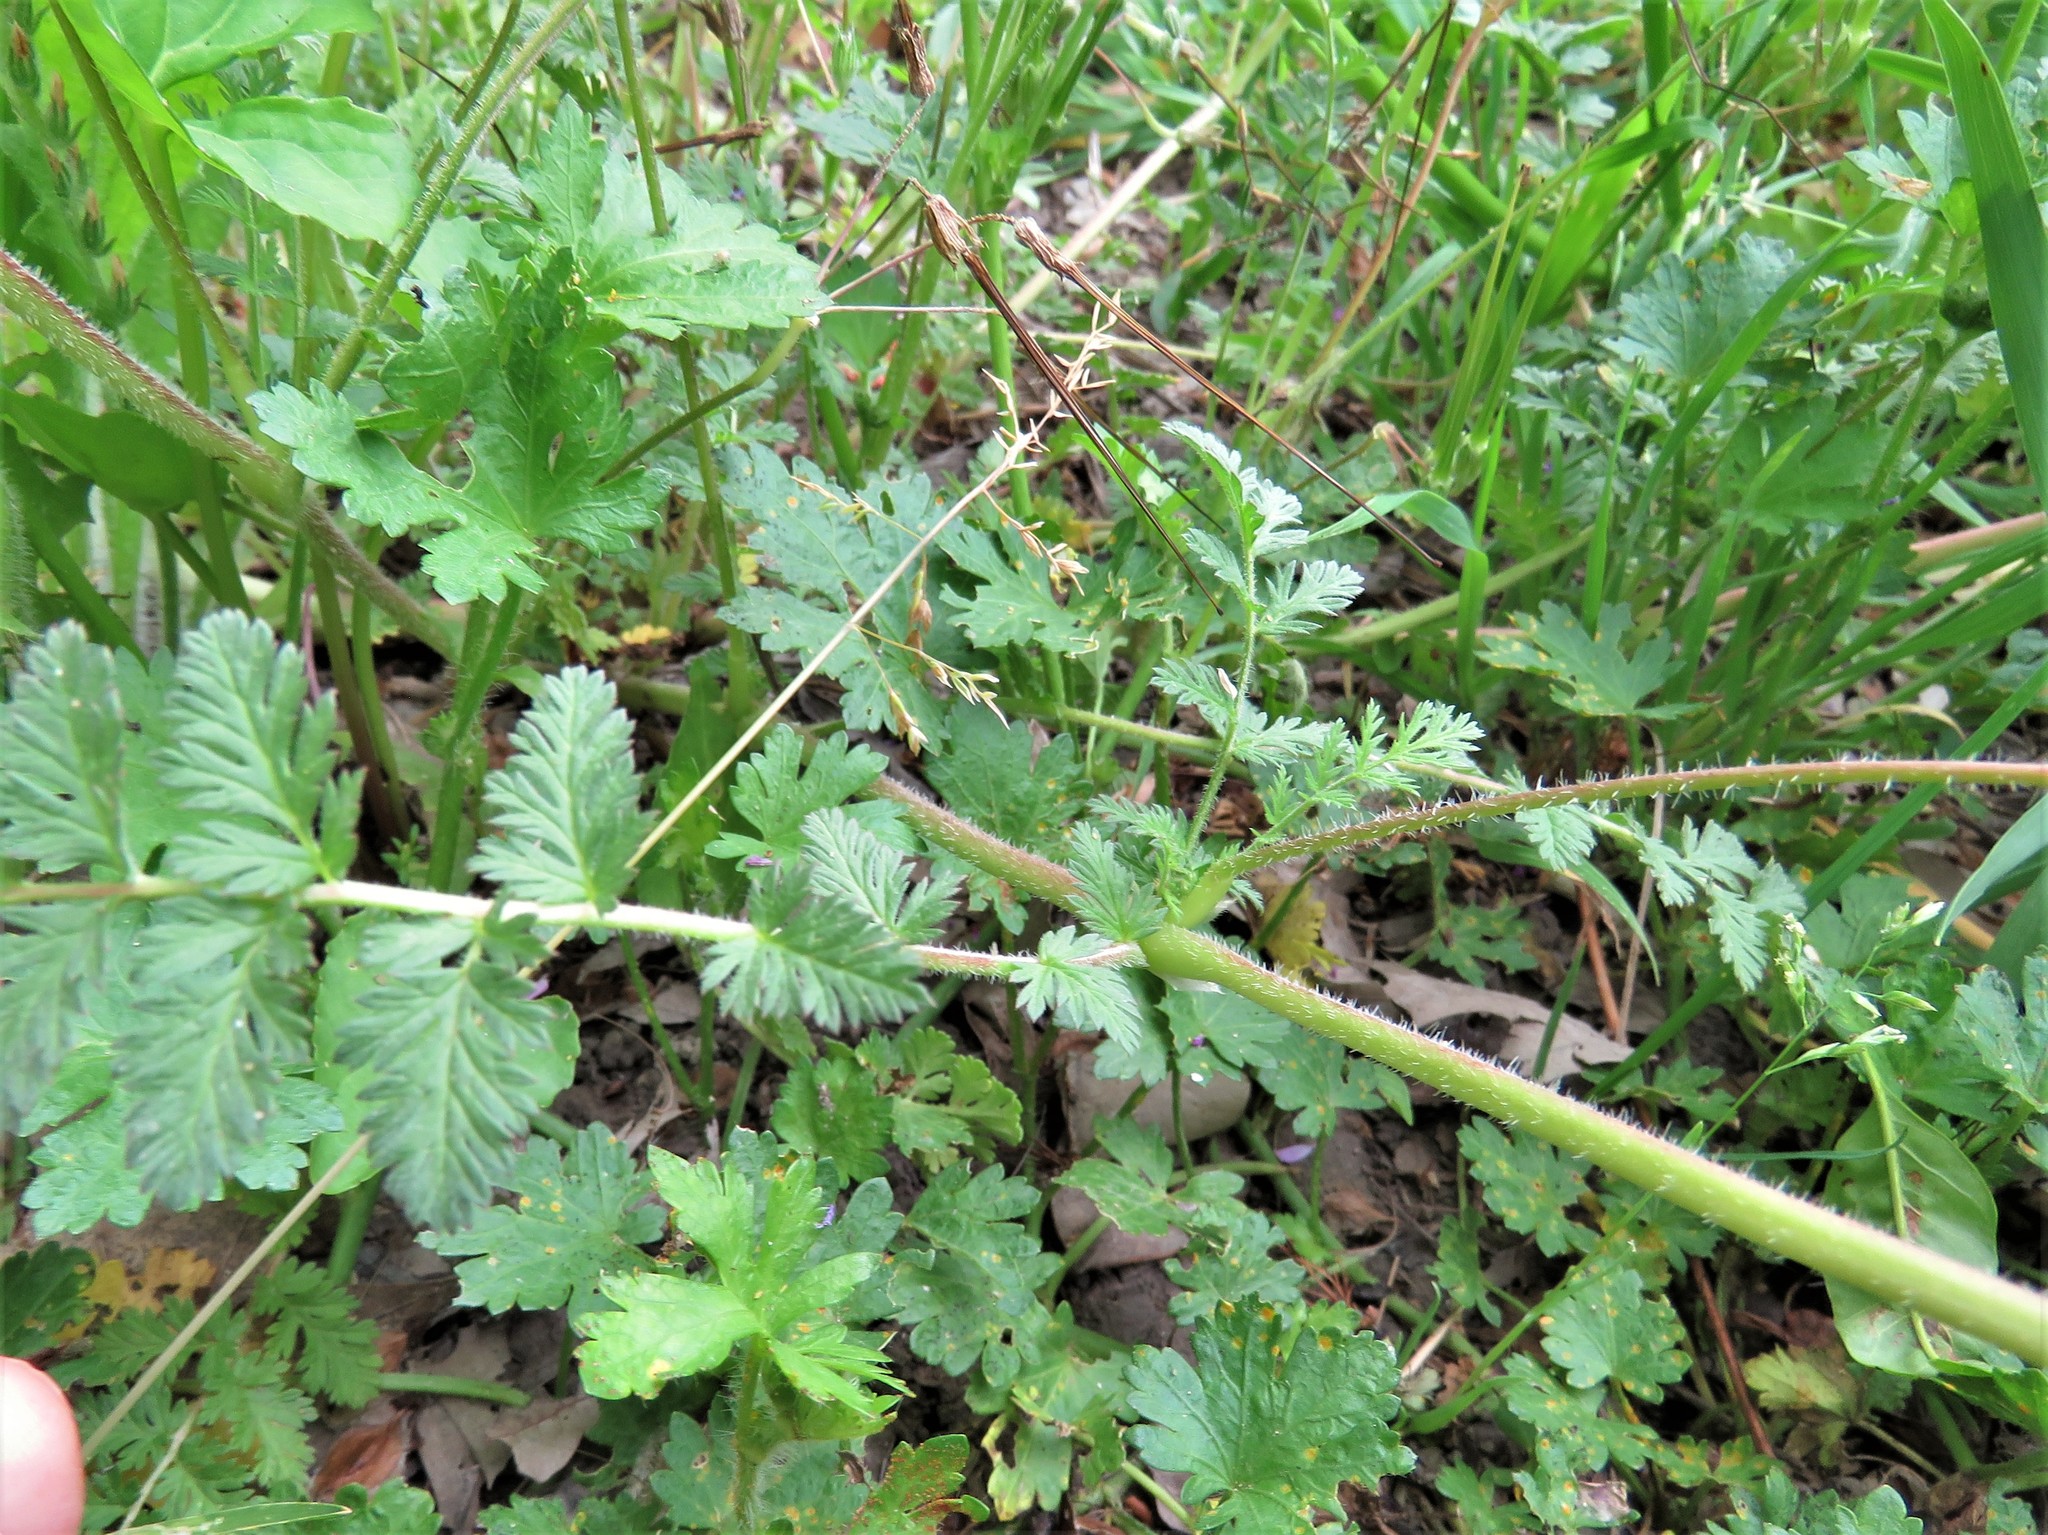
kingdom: Plantae
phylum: Tracheophyta
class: Magnoliopsida
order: Geraniales
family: Geraniaceae
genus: Erodium
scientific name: Erodium cicutarium
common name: Common stork's-bill
